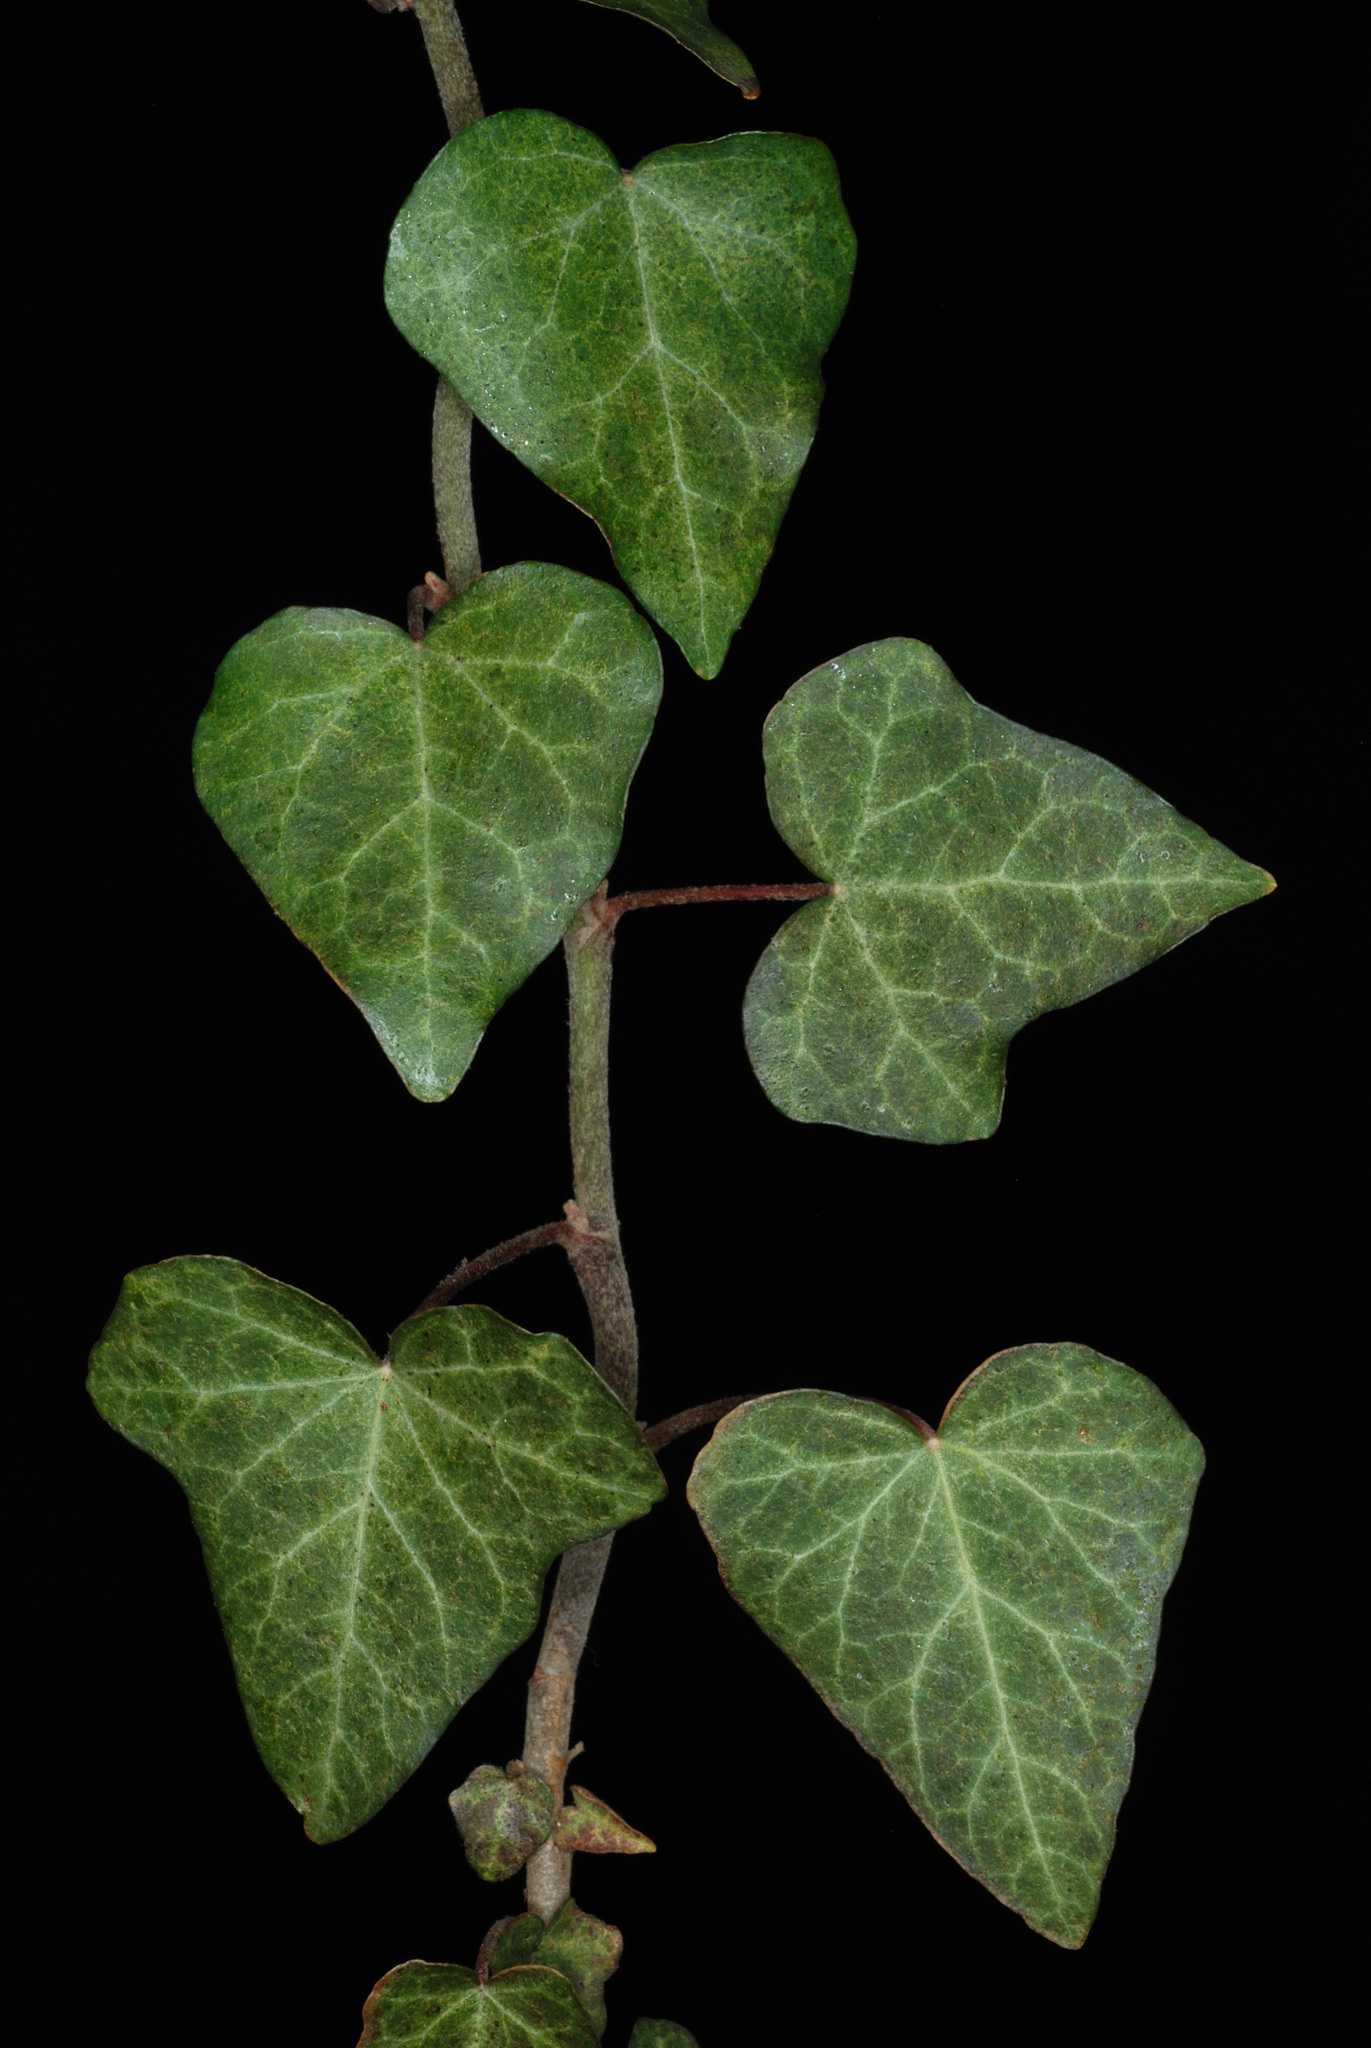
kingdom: Plantae
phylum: Tracheophyta
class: Magnoliopsida
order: Apiales
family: Araliaceae
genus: Hedera
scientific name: Hedera helix
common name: Ivy
